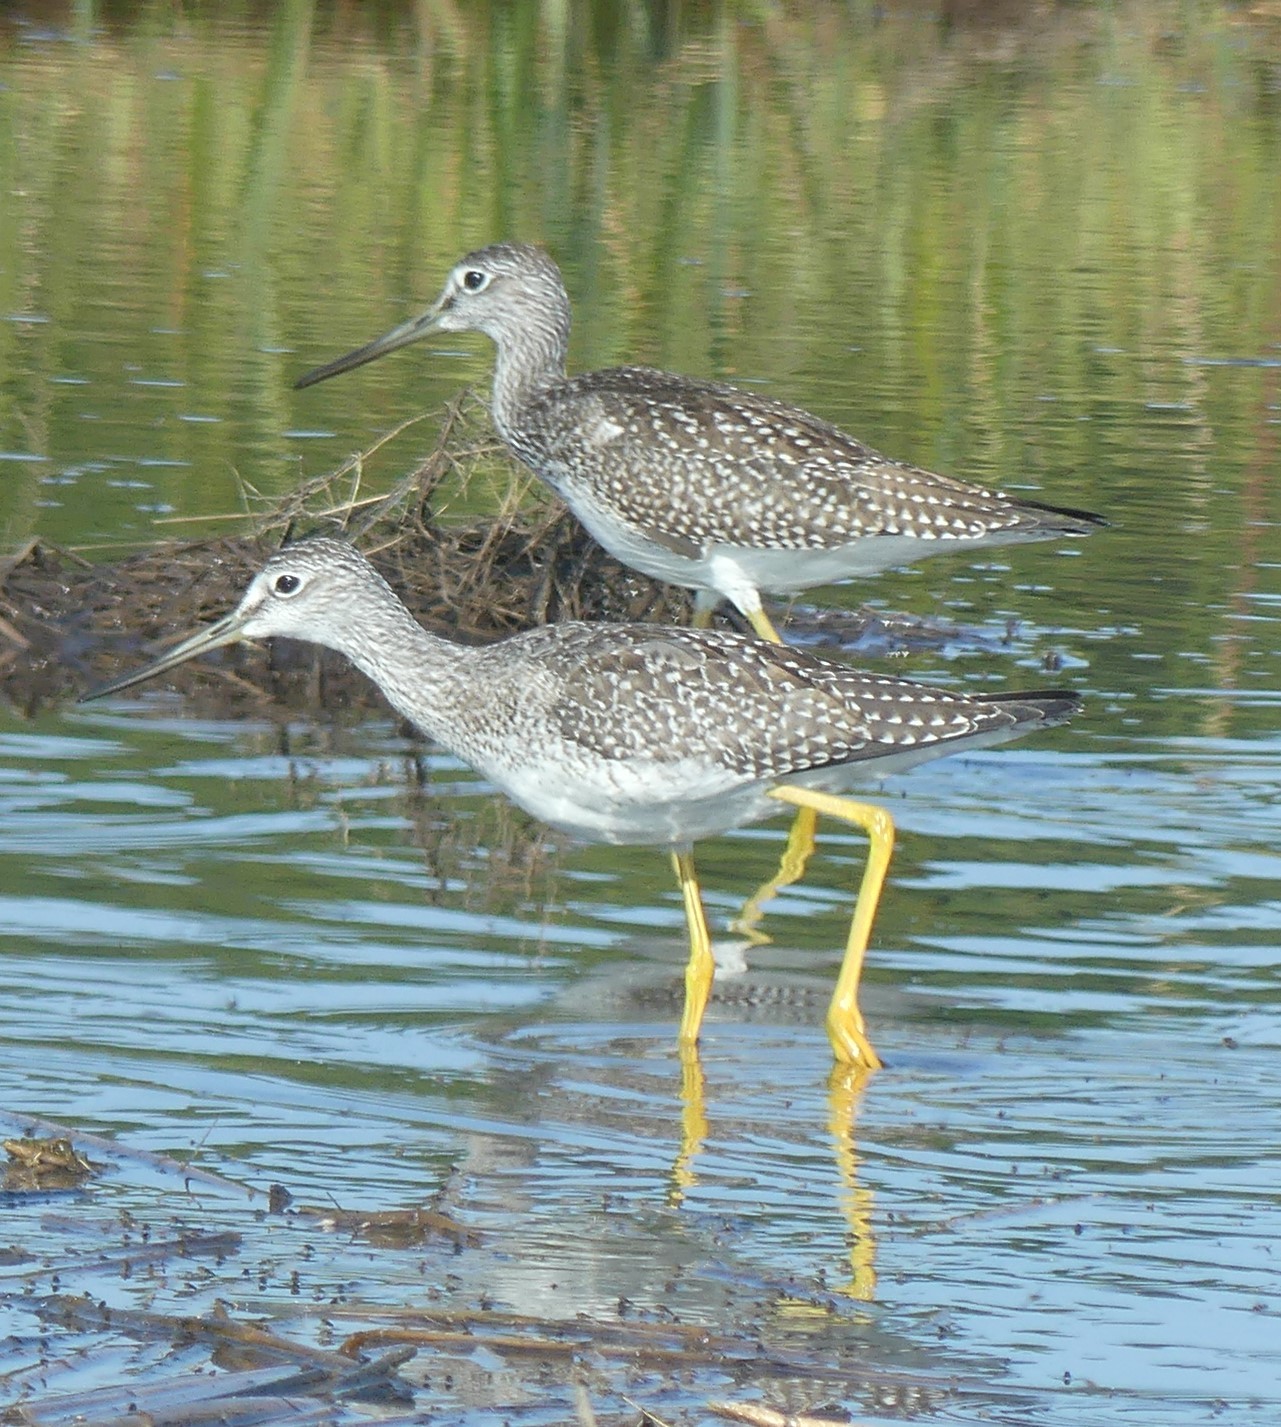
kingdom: Animalia
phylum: Chordata
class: Aves
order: Charadriiformes
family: Scolopacidae
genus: Tringa
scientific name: Tringa melanoleuca
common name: Greater yellowlegs
